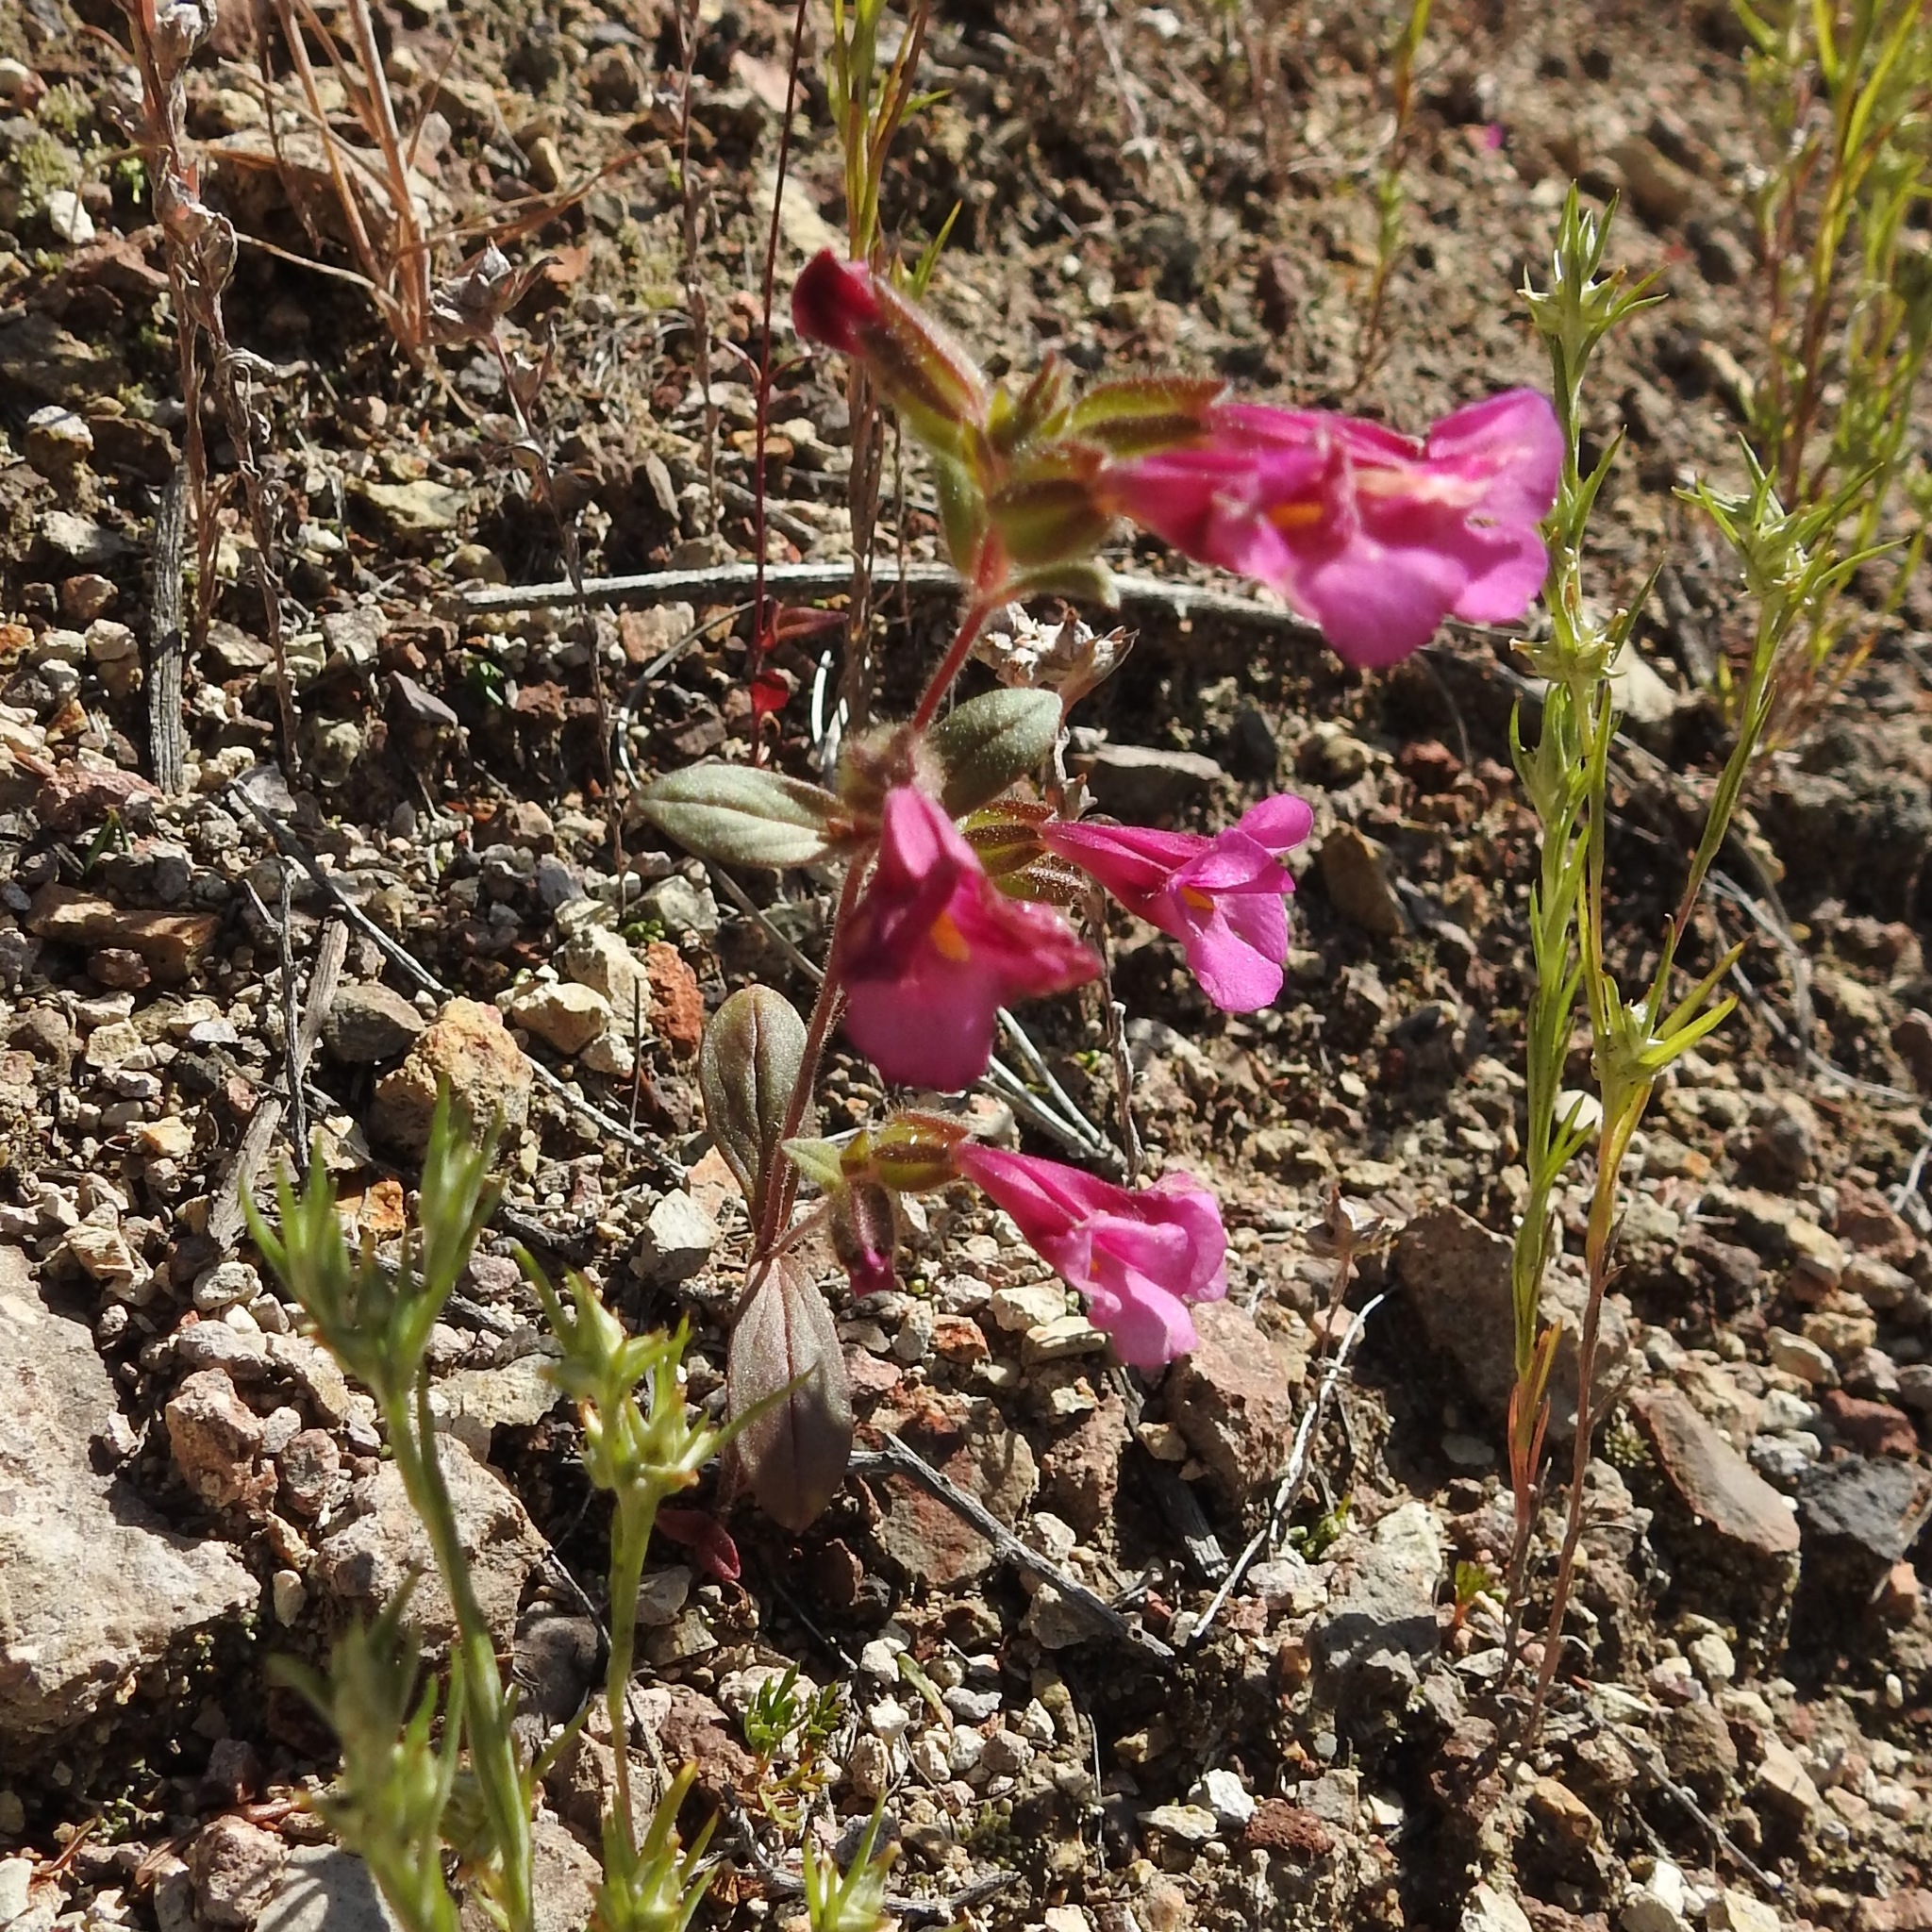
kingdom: Plantae
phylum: Tracheophyta
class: Magnoliopsida
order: Lamiales
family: Phrymaceae
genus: Diplacus
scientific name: Diplacus fremontii
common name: Fremont's monkey-flower
